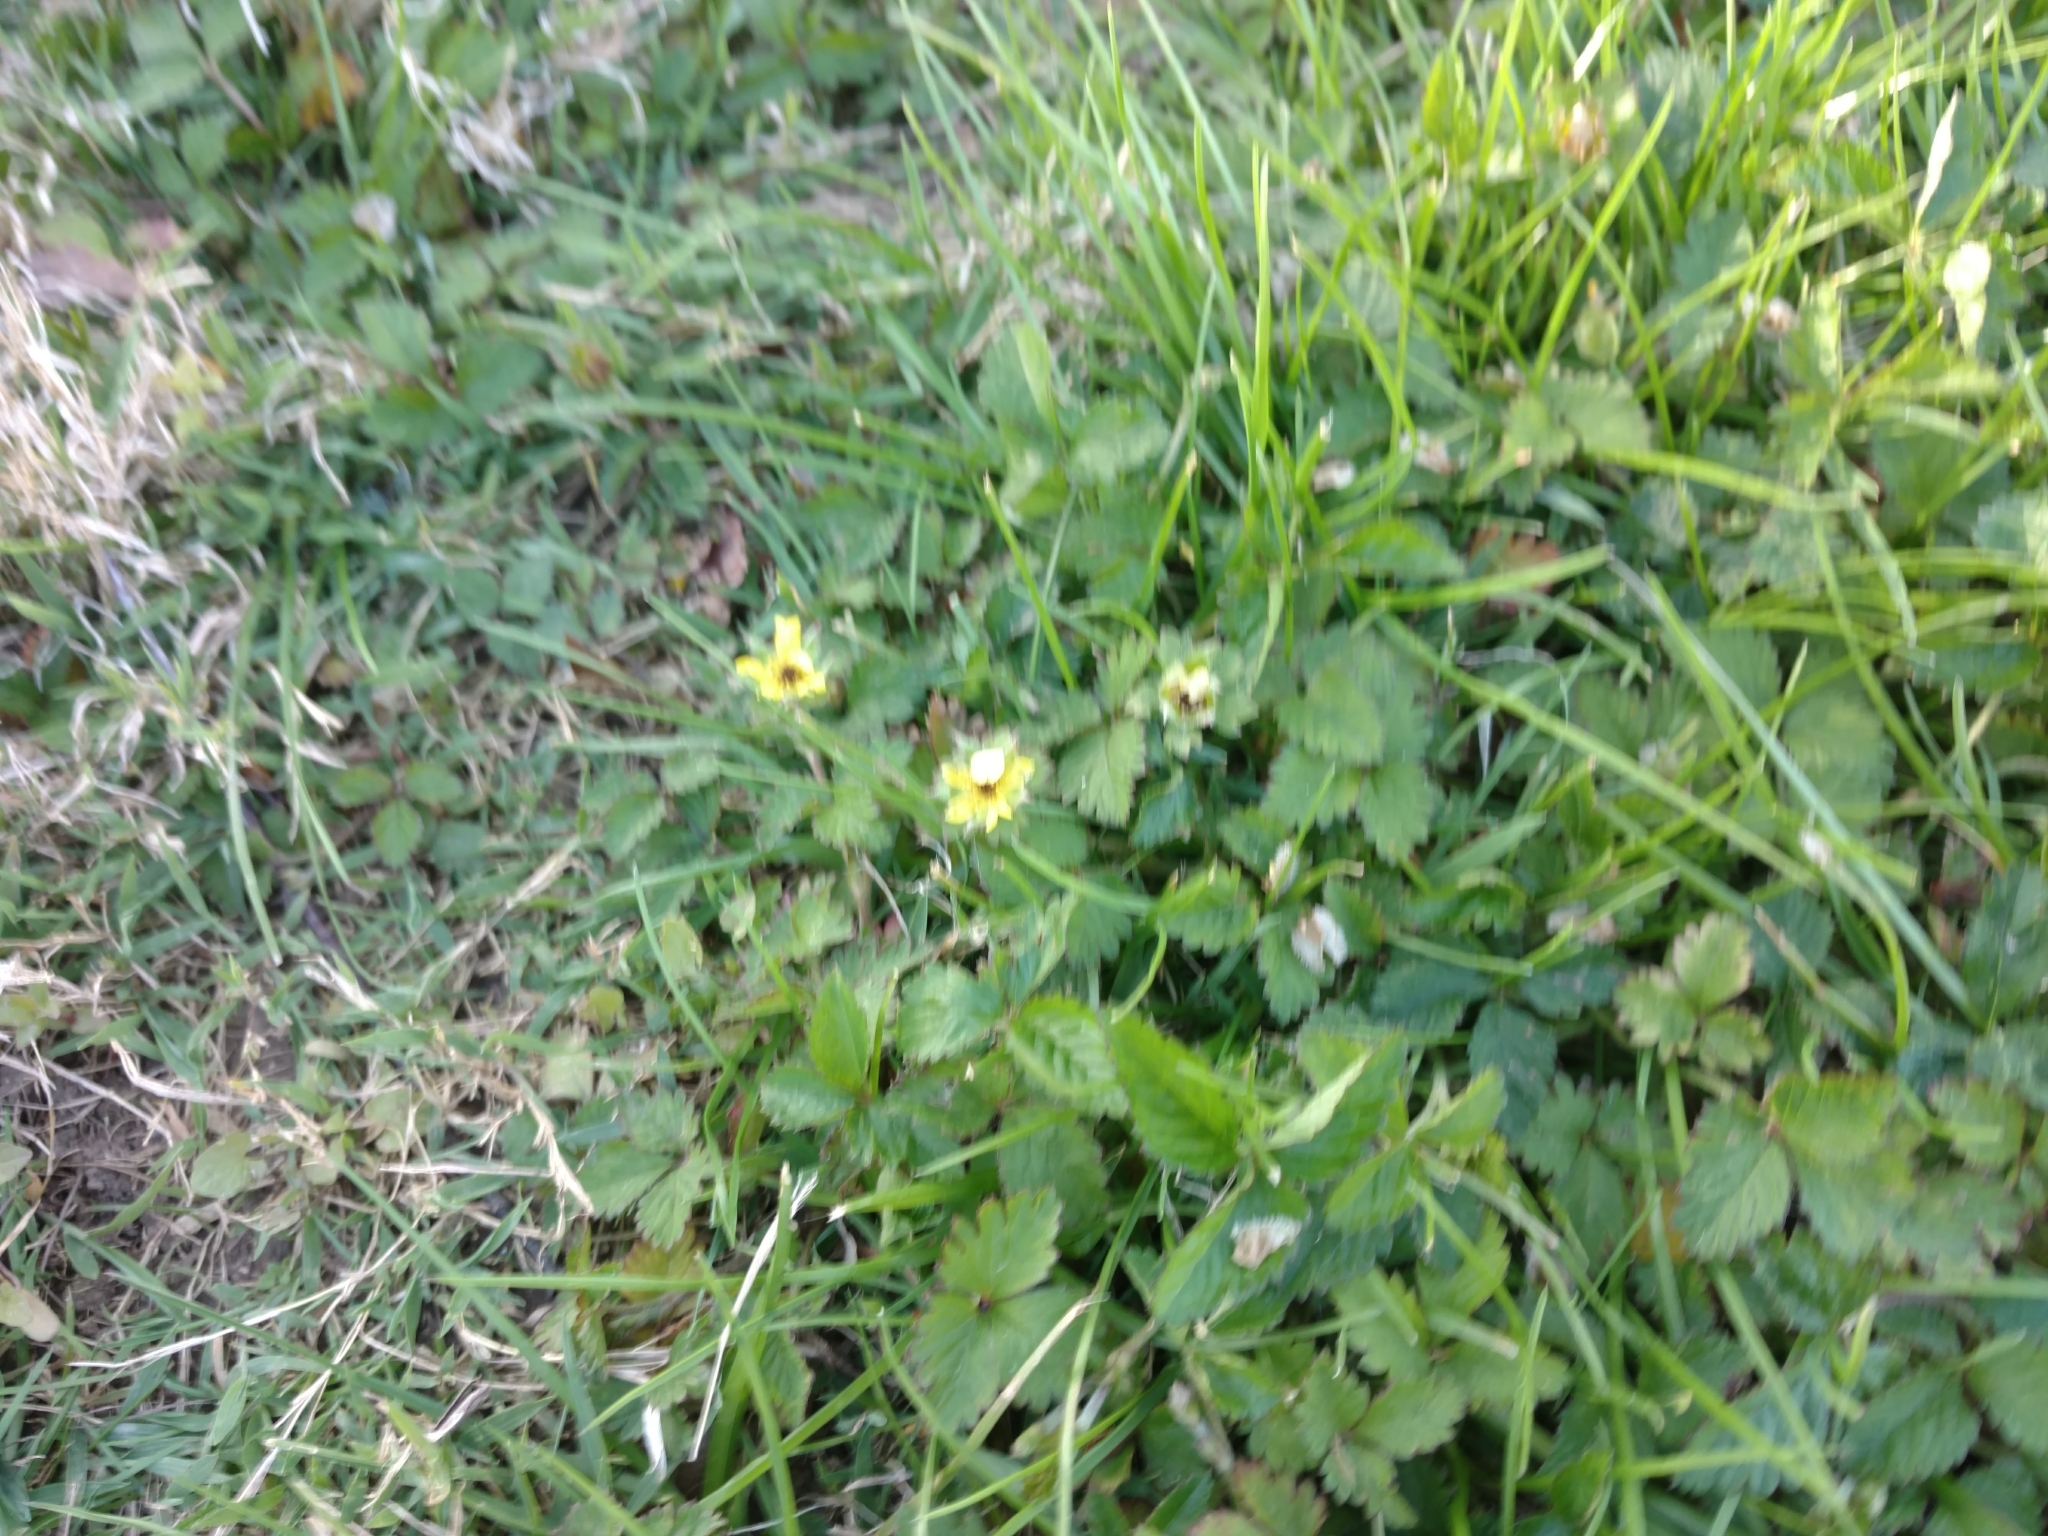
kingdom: Plantae
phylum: Tracheophyta
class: Magnoliopsida
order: Rosales
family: Rosaceae
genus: Potentilla
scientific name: Potentilla indica
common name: Yellow-flowered strawberry
